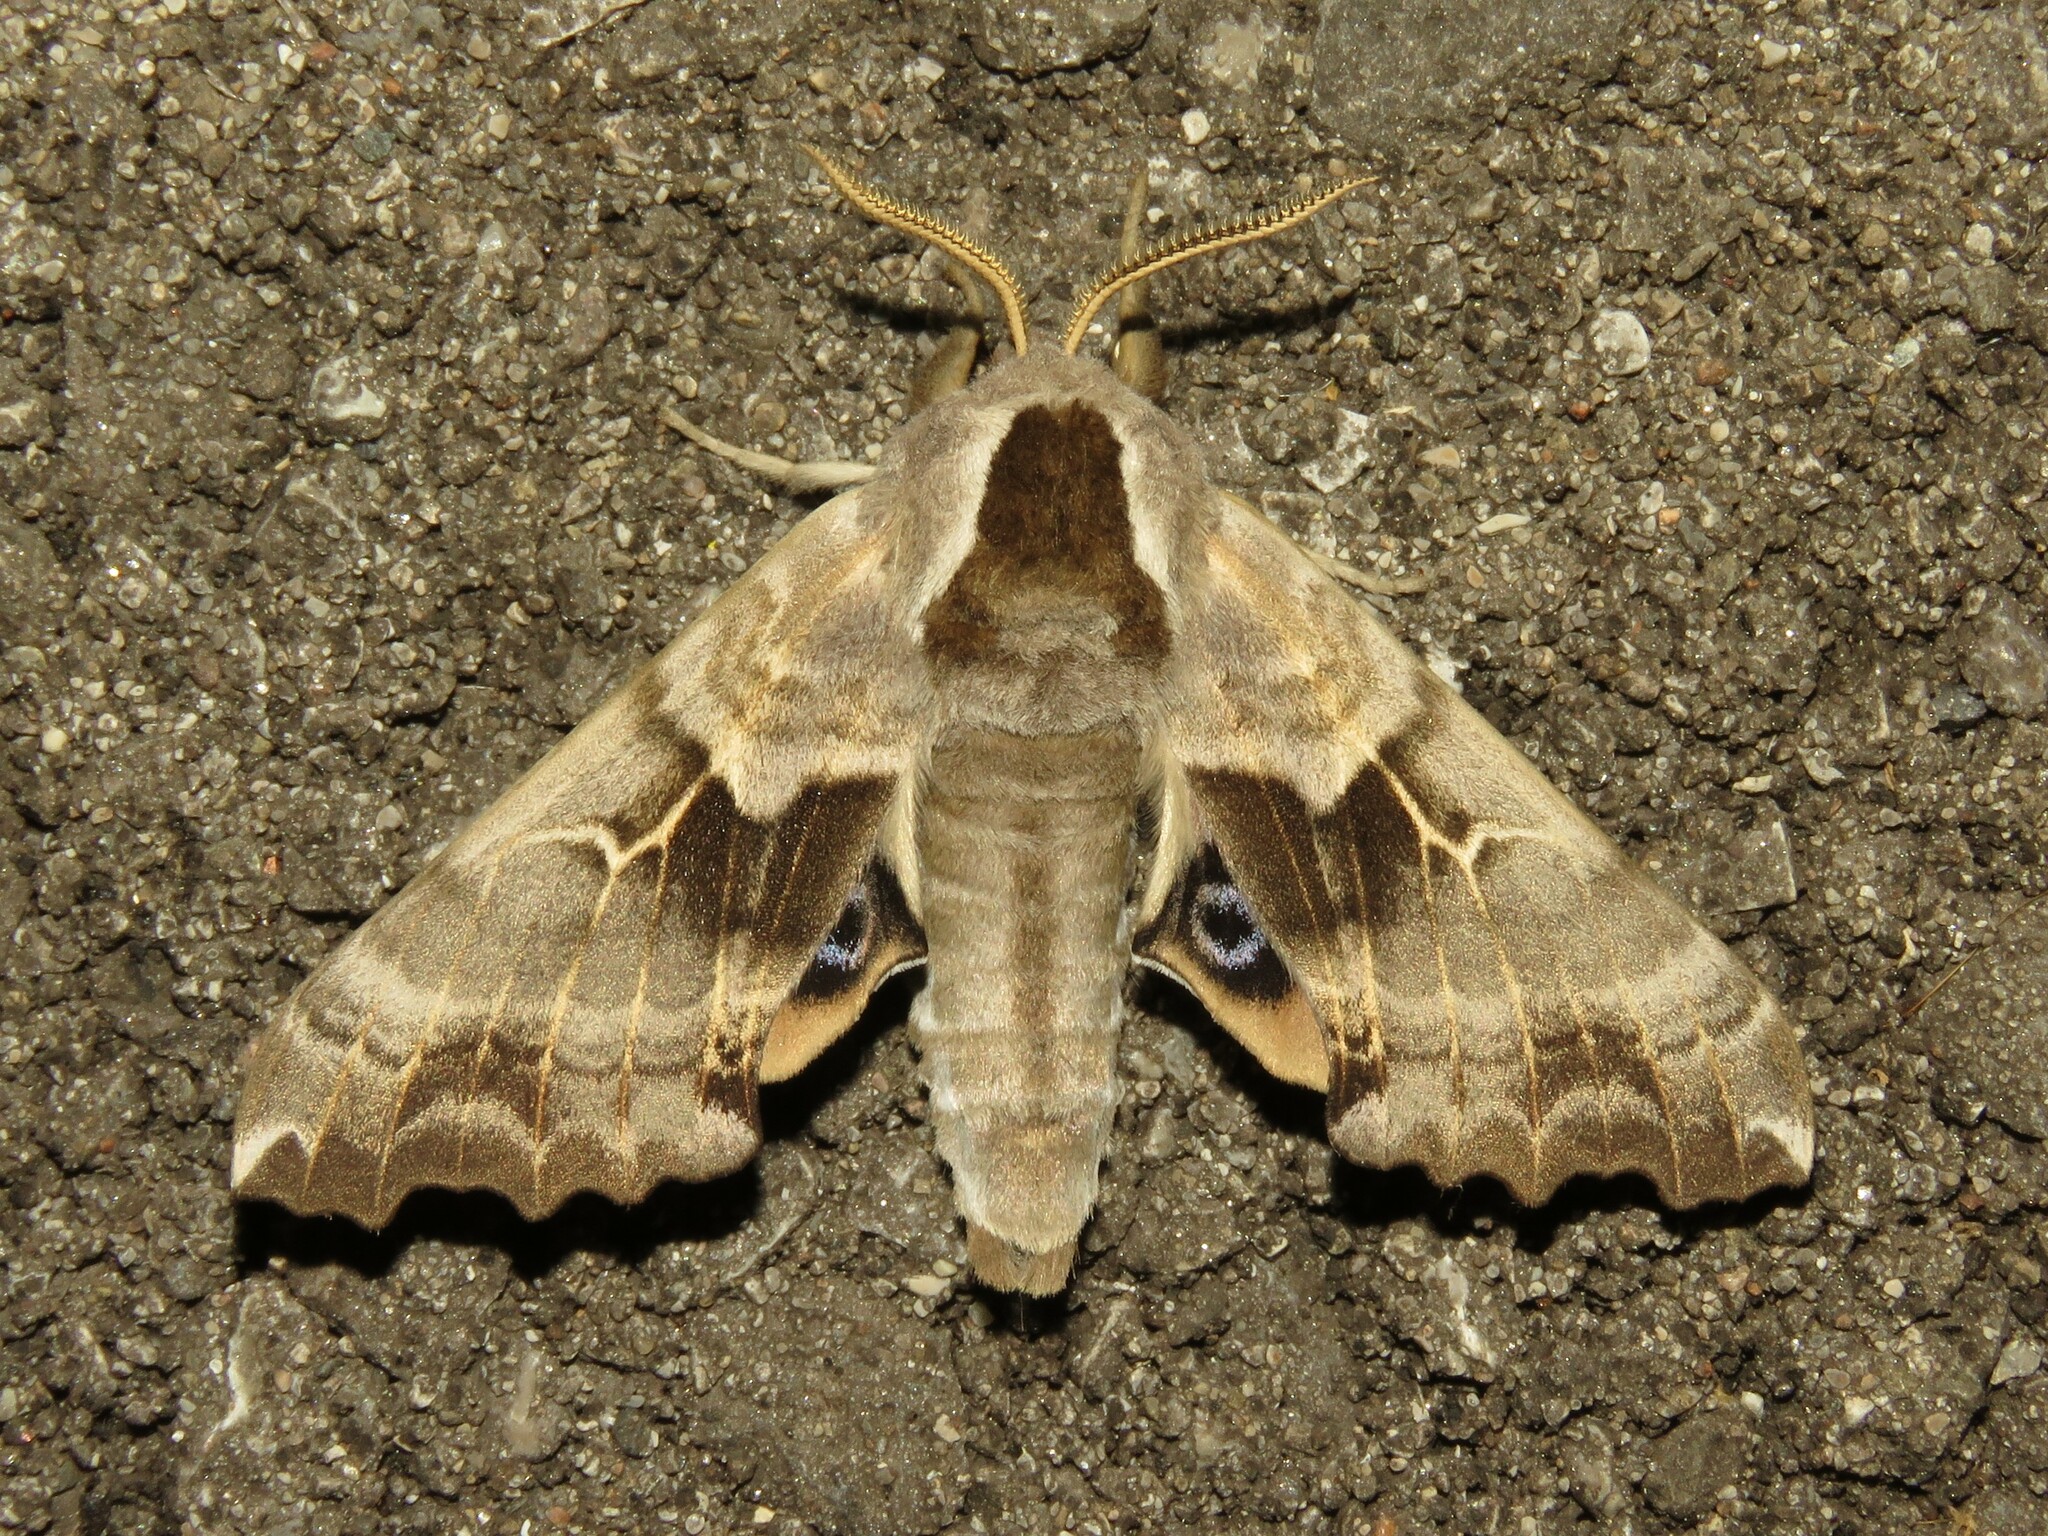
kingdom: Animalia
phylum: Arthropoda
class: Insecta
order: Lepidoptera
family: Sphingidae
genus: Smerinthus
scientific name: Smerinthus cerisyi
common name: Cerisy's sphinx moth
